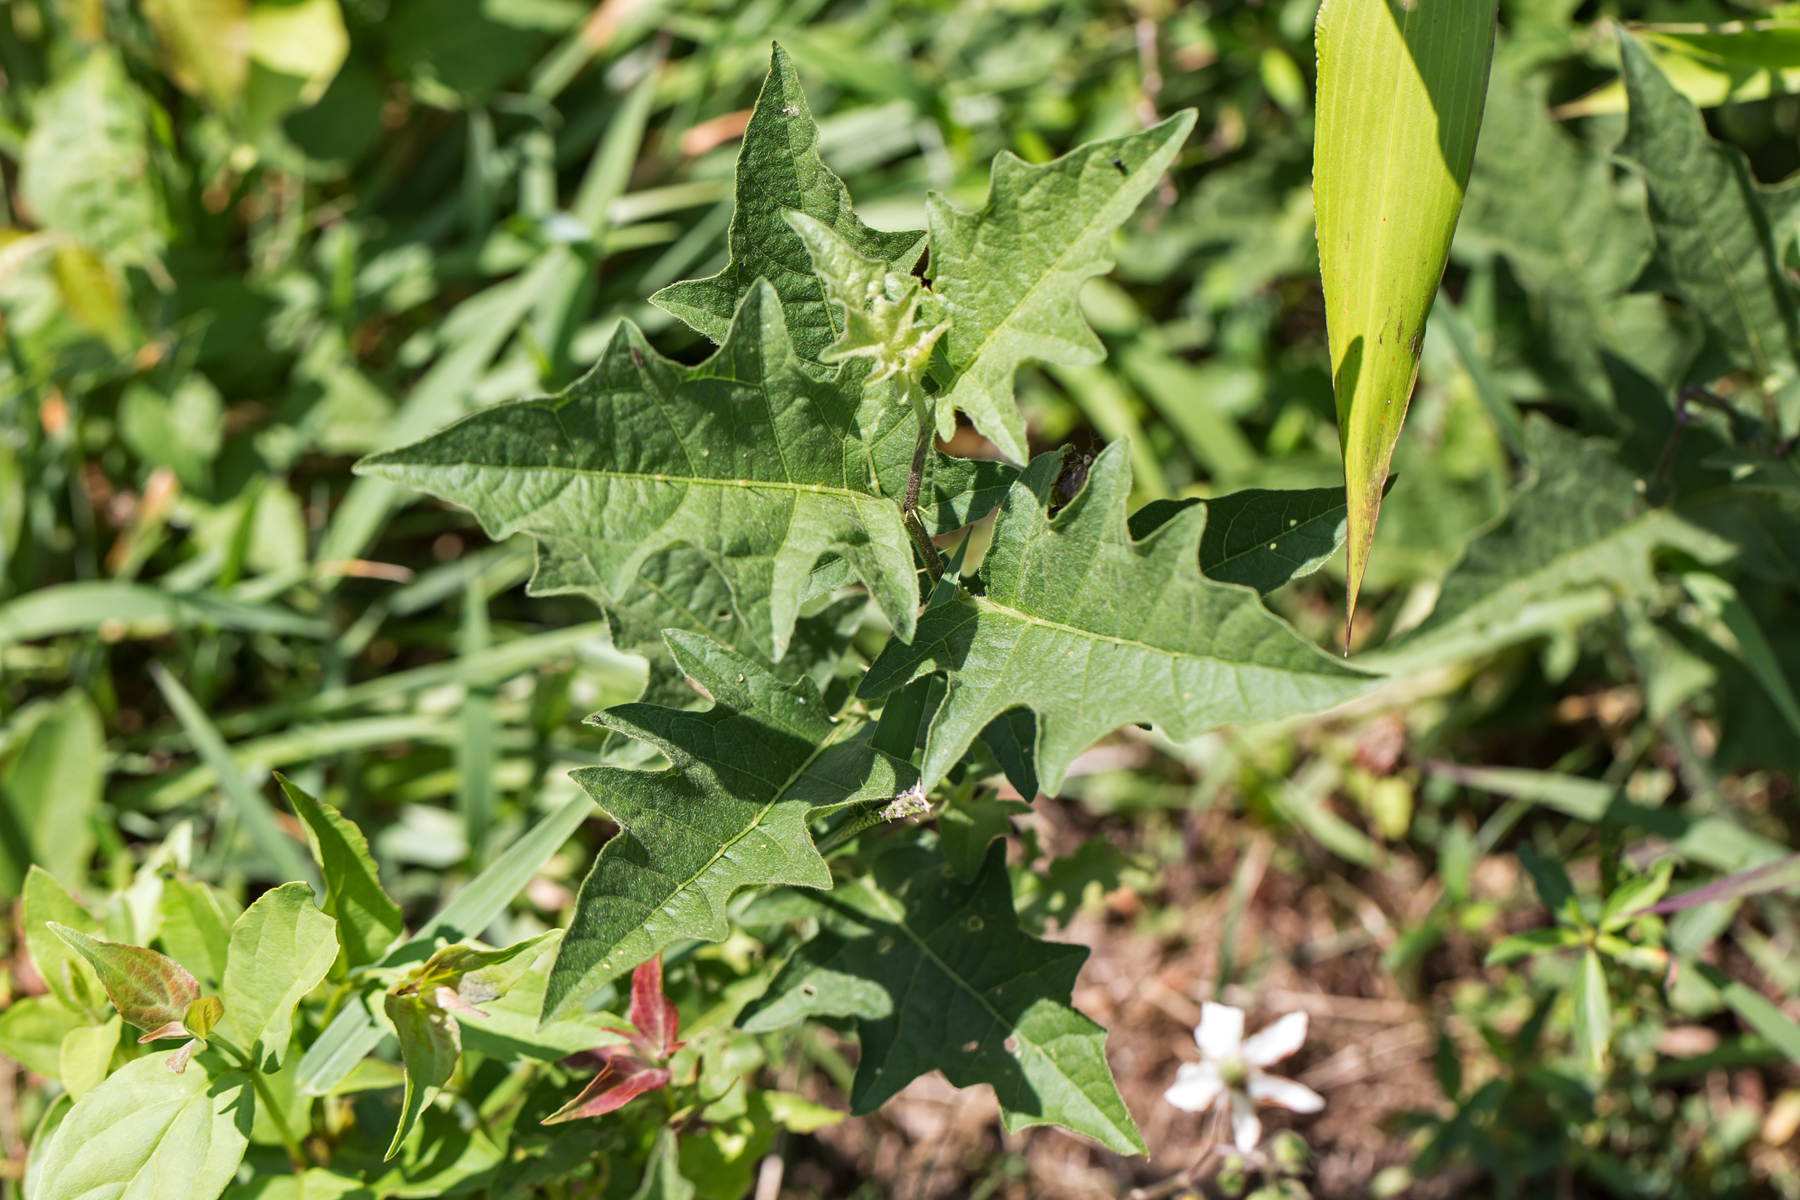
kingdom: Plantae
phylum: Tracheophyta
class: Magnoliopsida
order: Solanales
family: Solanaceae
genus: Solanum
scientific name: Solanum carolinense
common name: Horse-nettle
